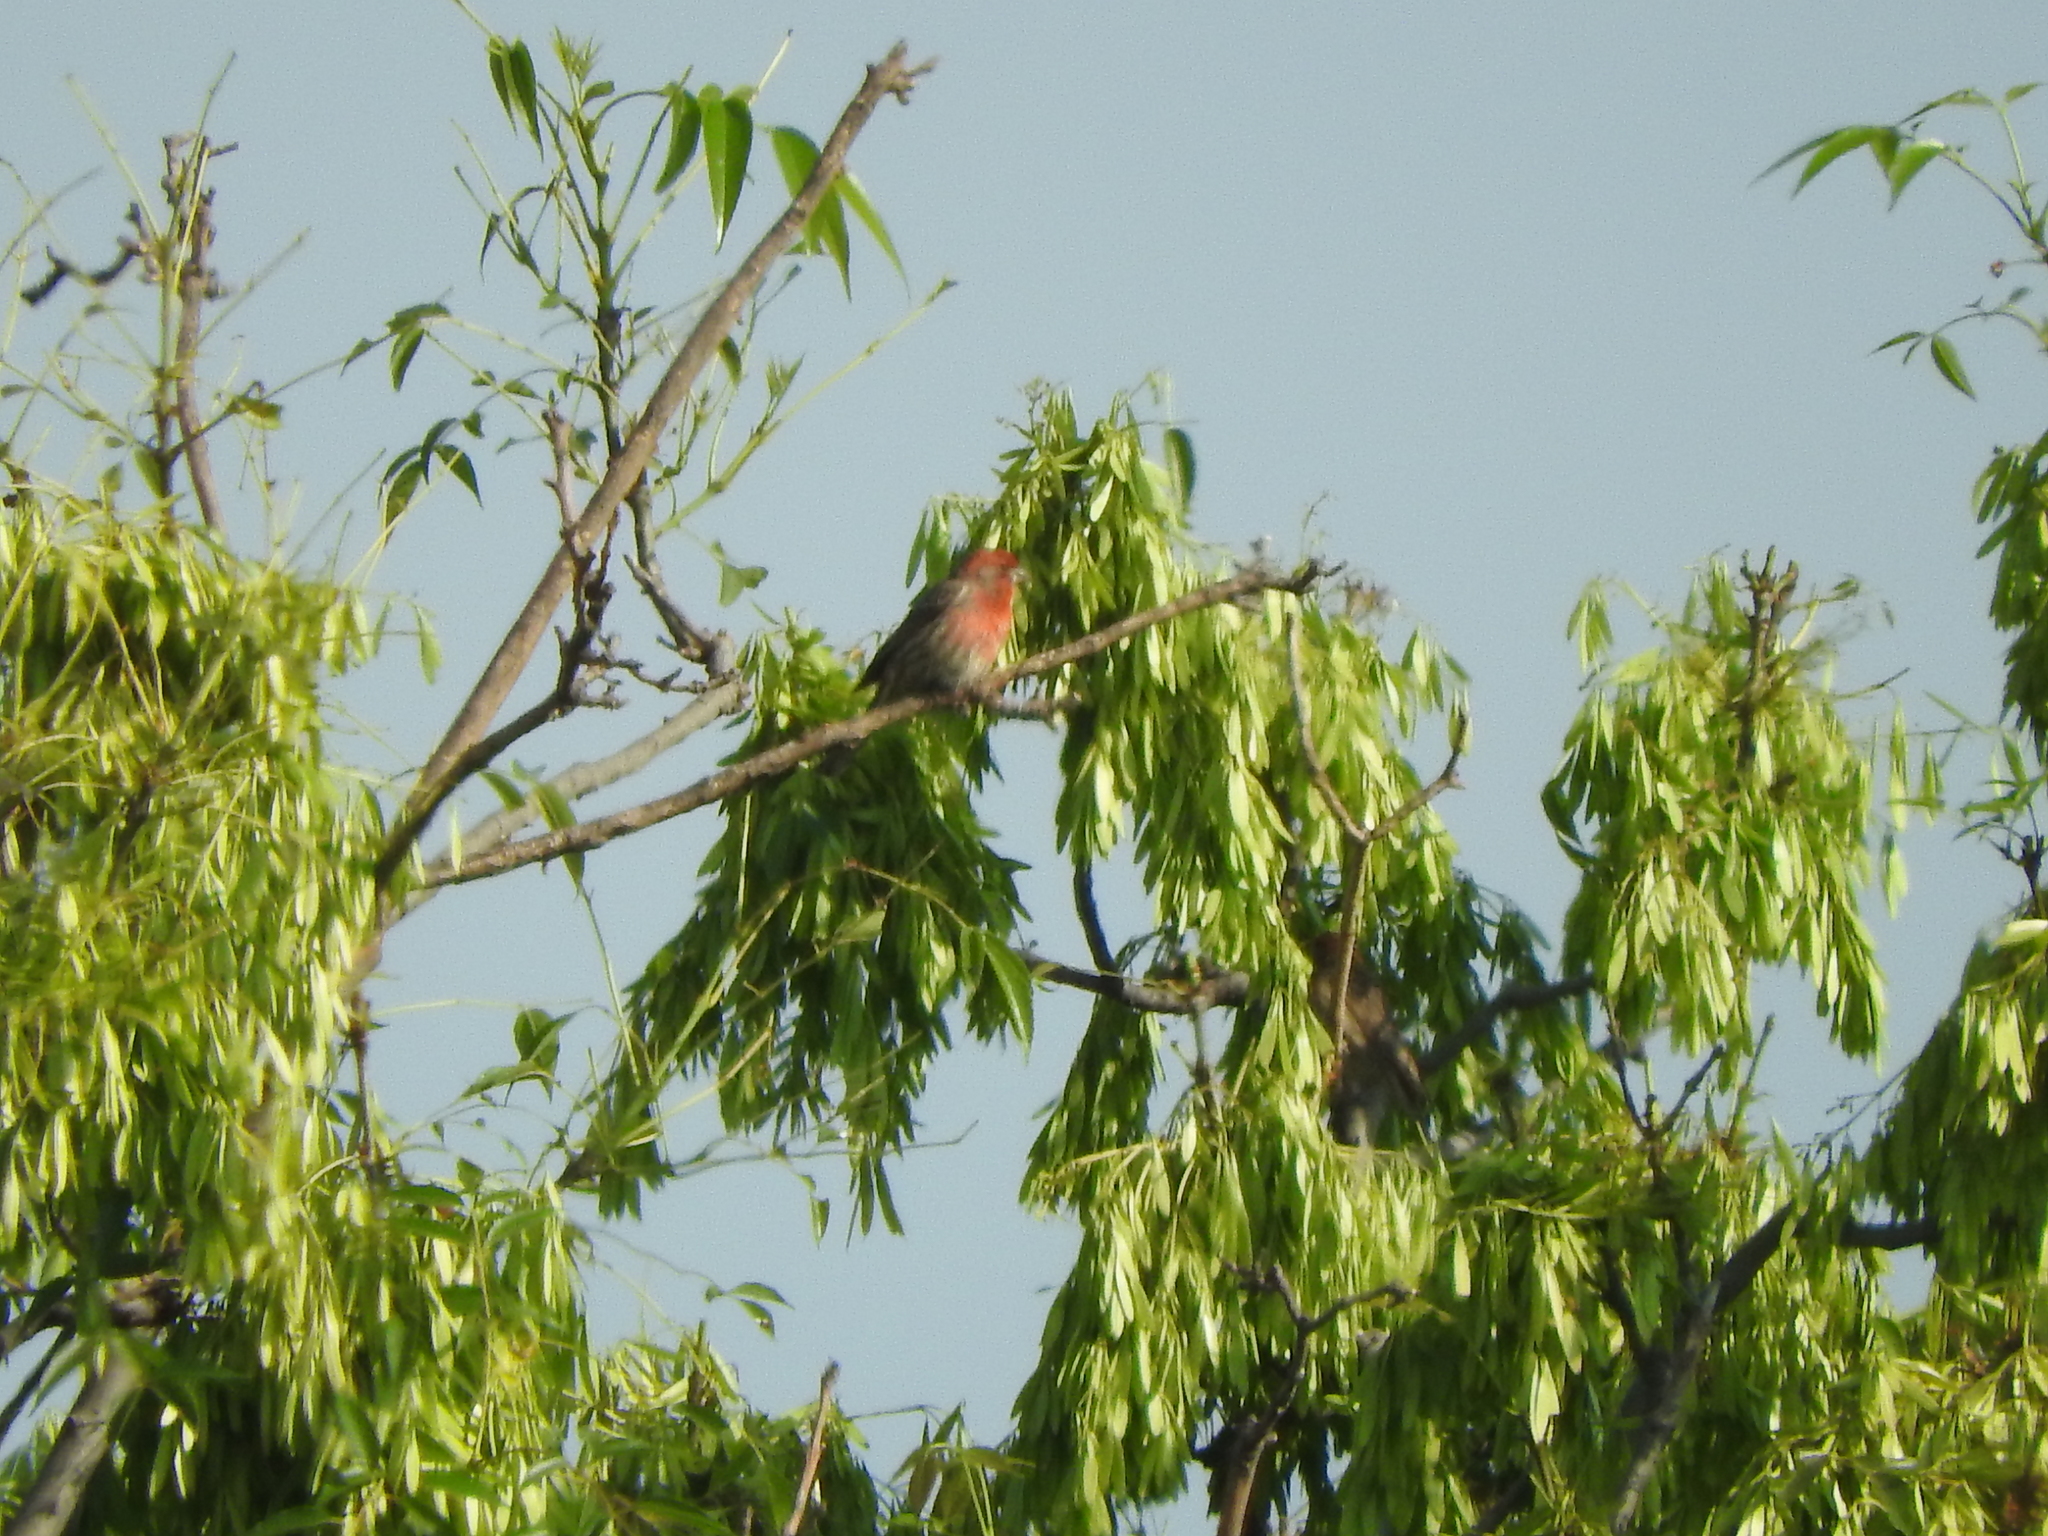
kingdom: Animalia
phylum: Chordata
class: Aves
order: Passeriformes
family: Fringillidae
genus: Haemorhous
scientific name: Haemorhous mexicanus
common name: House finch
